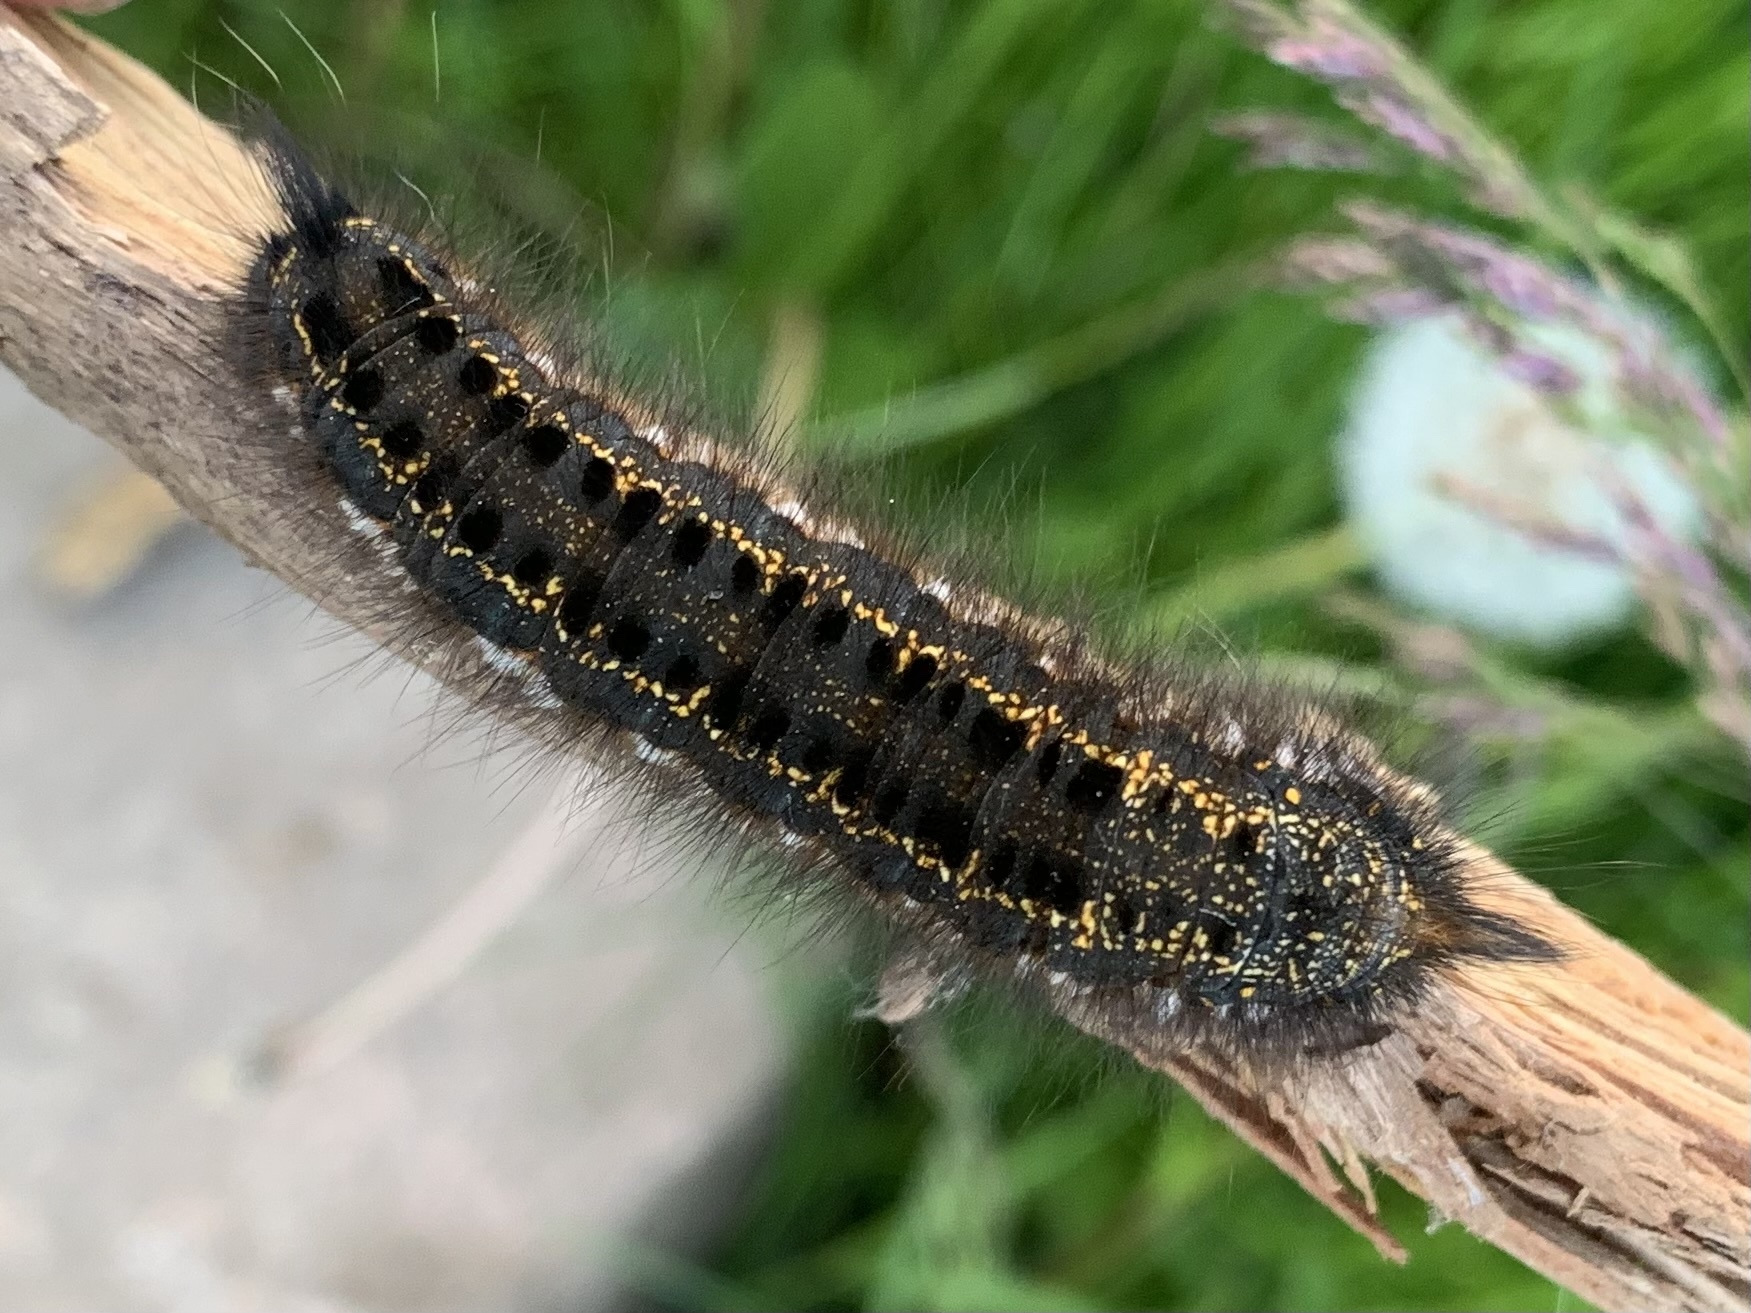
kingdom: Animalia
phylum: Arthropoda
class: Insecta
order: Lepidoptera
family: Lasiocampidae
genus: Euthrix
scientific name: Euthrix potatoria
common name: Drinker
